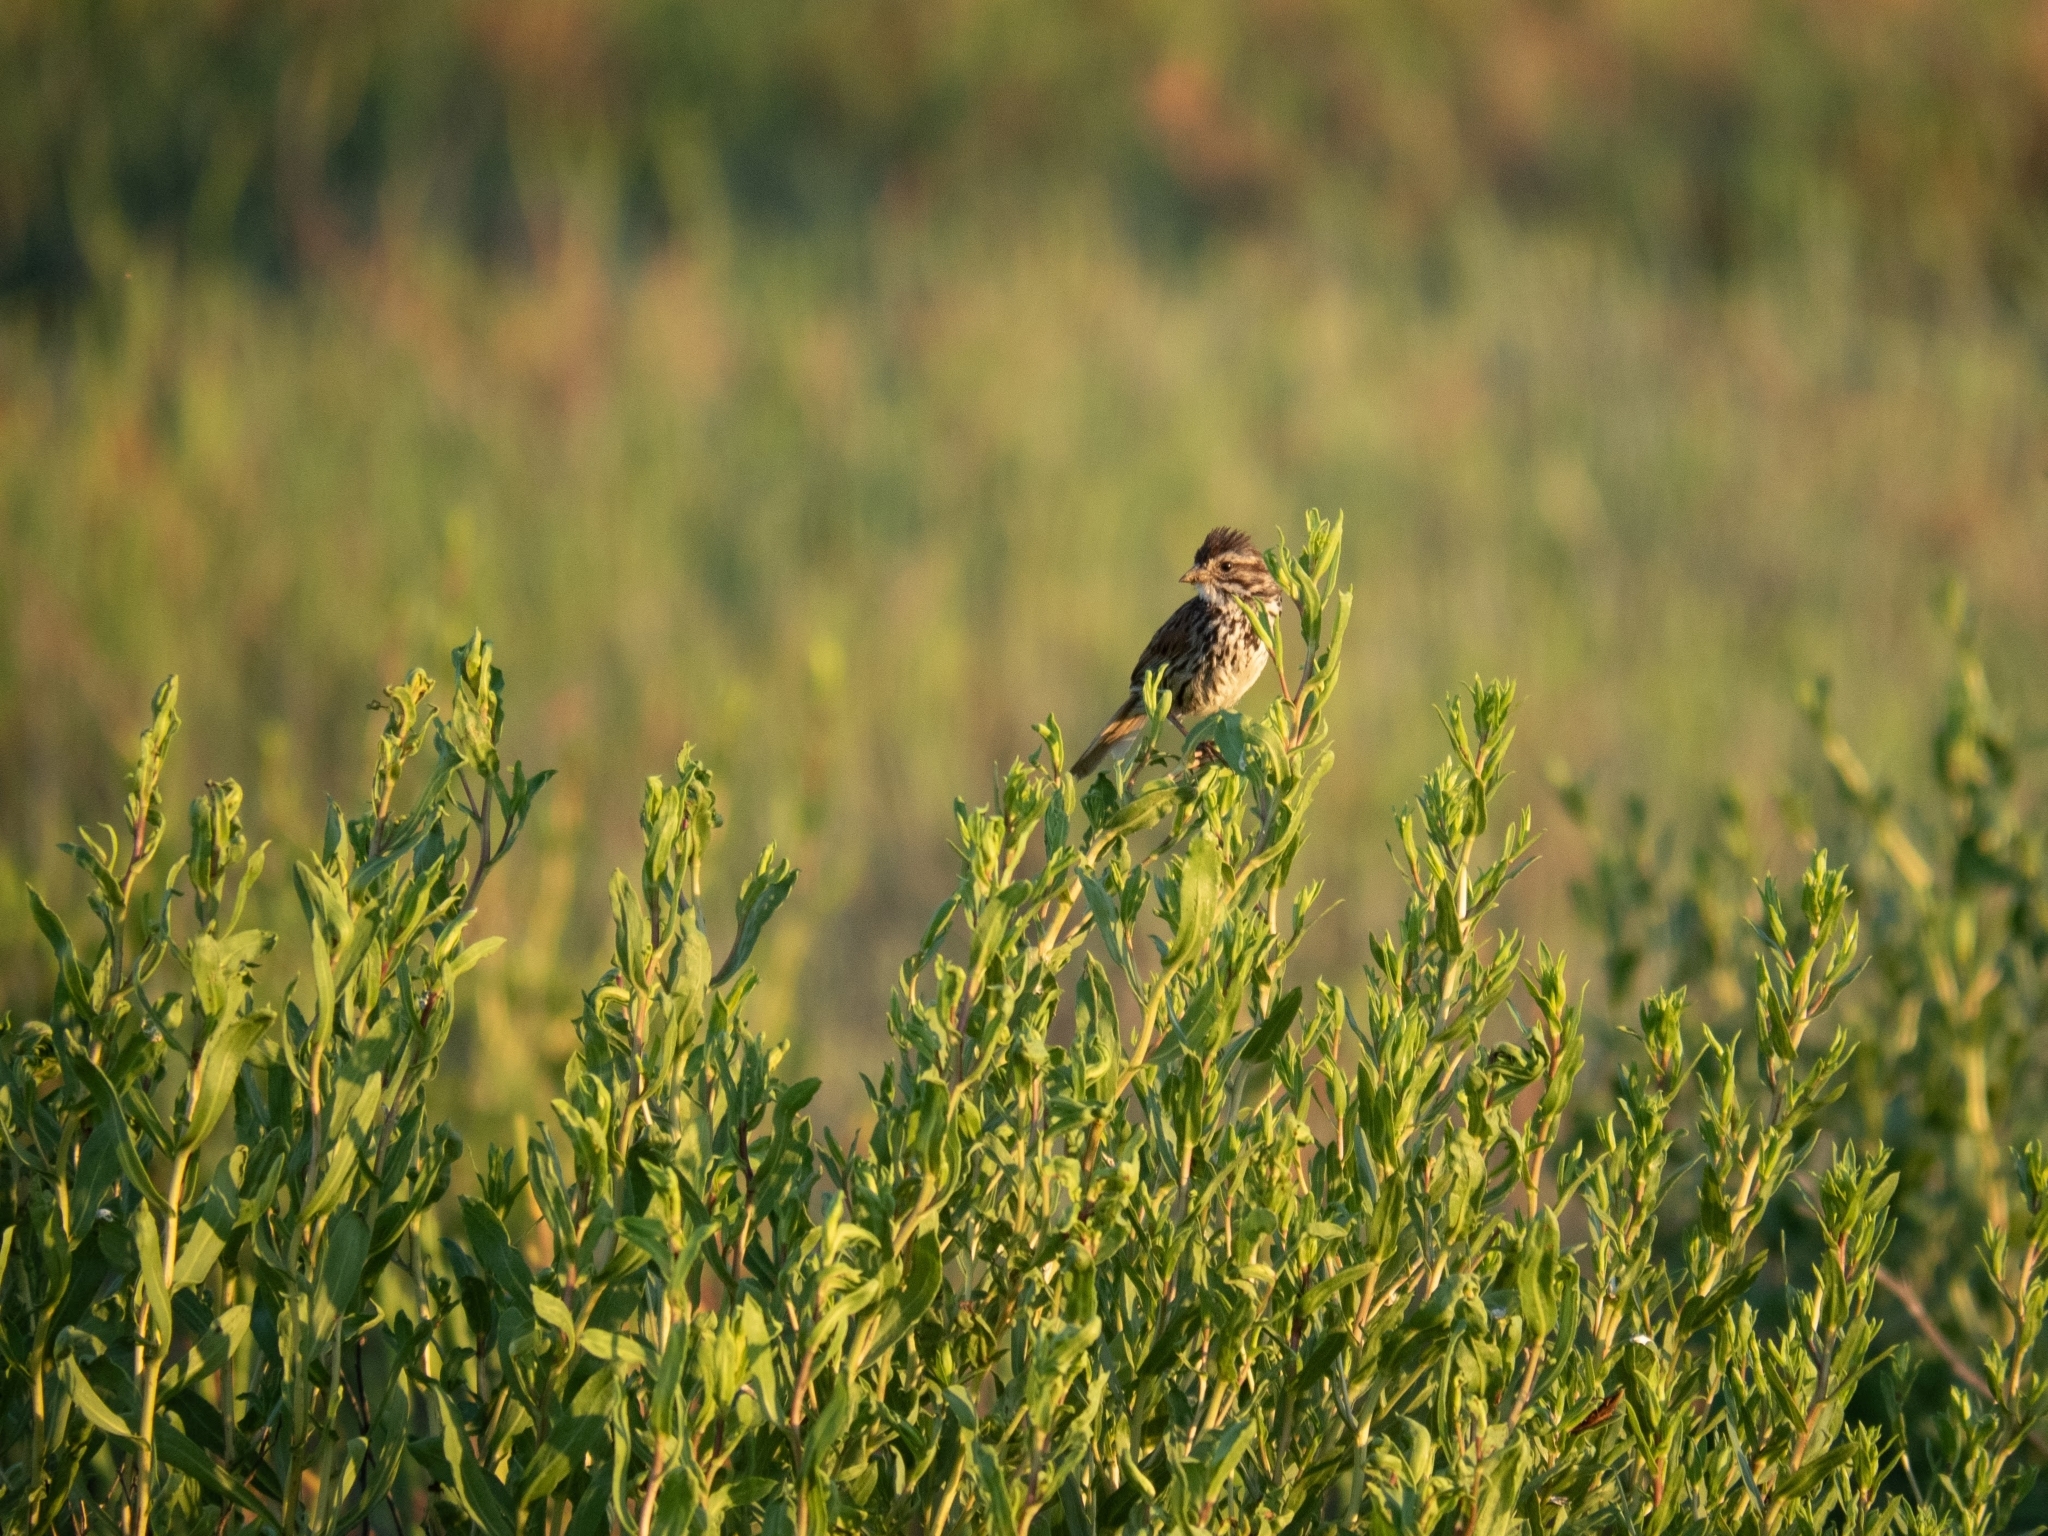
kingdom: Animalia
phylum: Chordata
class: Aves
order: Passeriformes
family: Passerellidae
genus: Passerculus
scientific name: Passerculus sandwichensis
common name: Savannah sparrow
